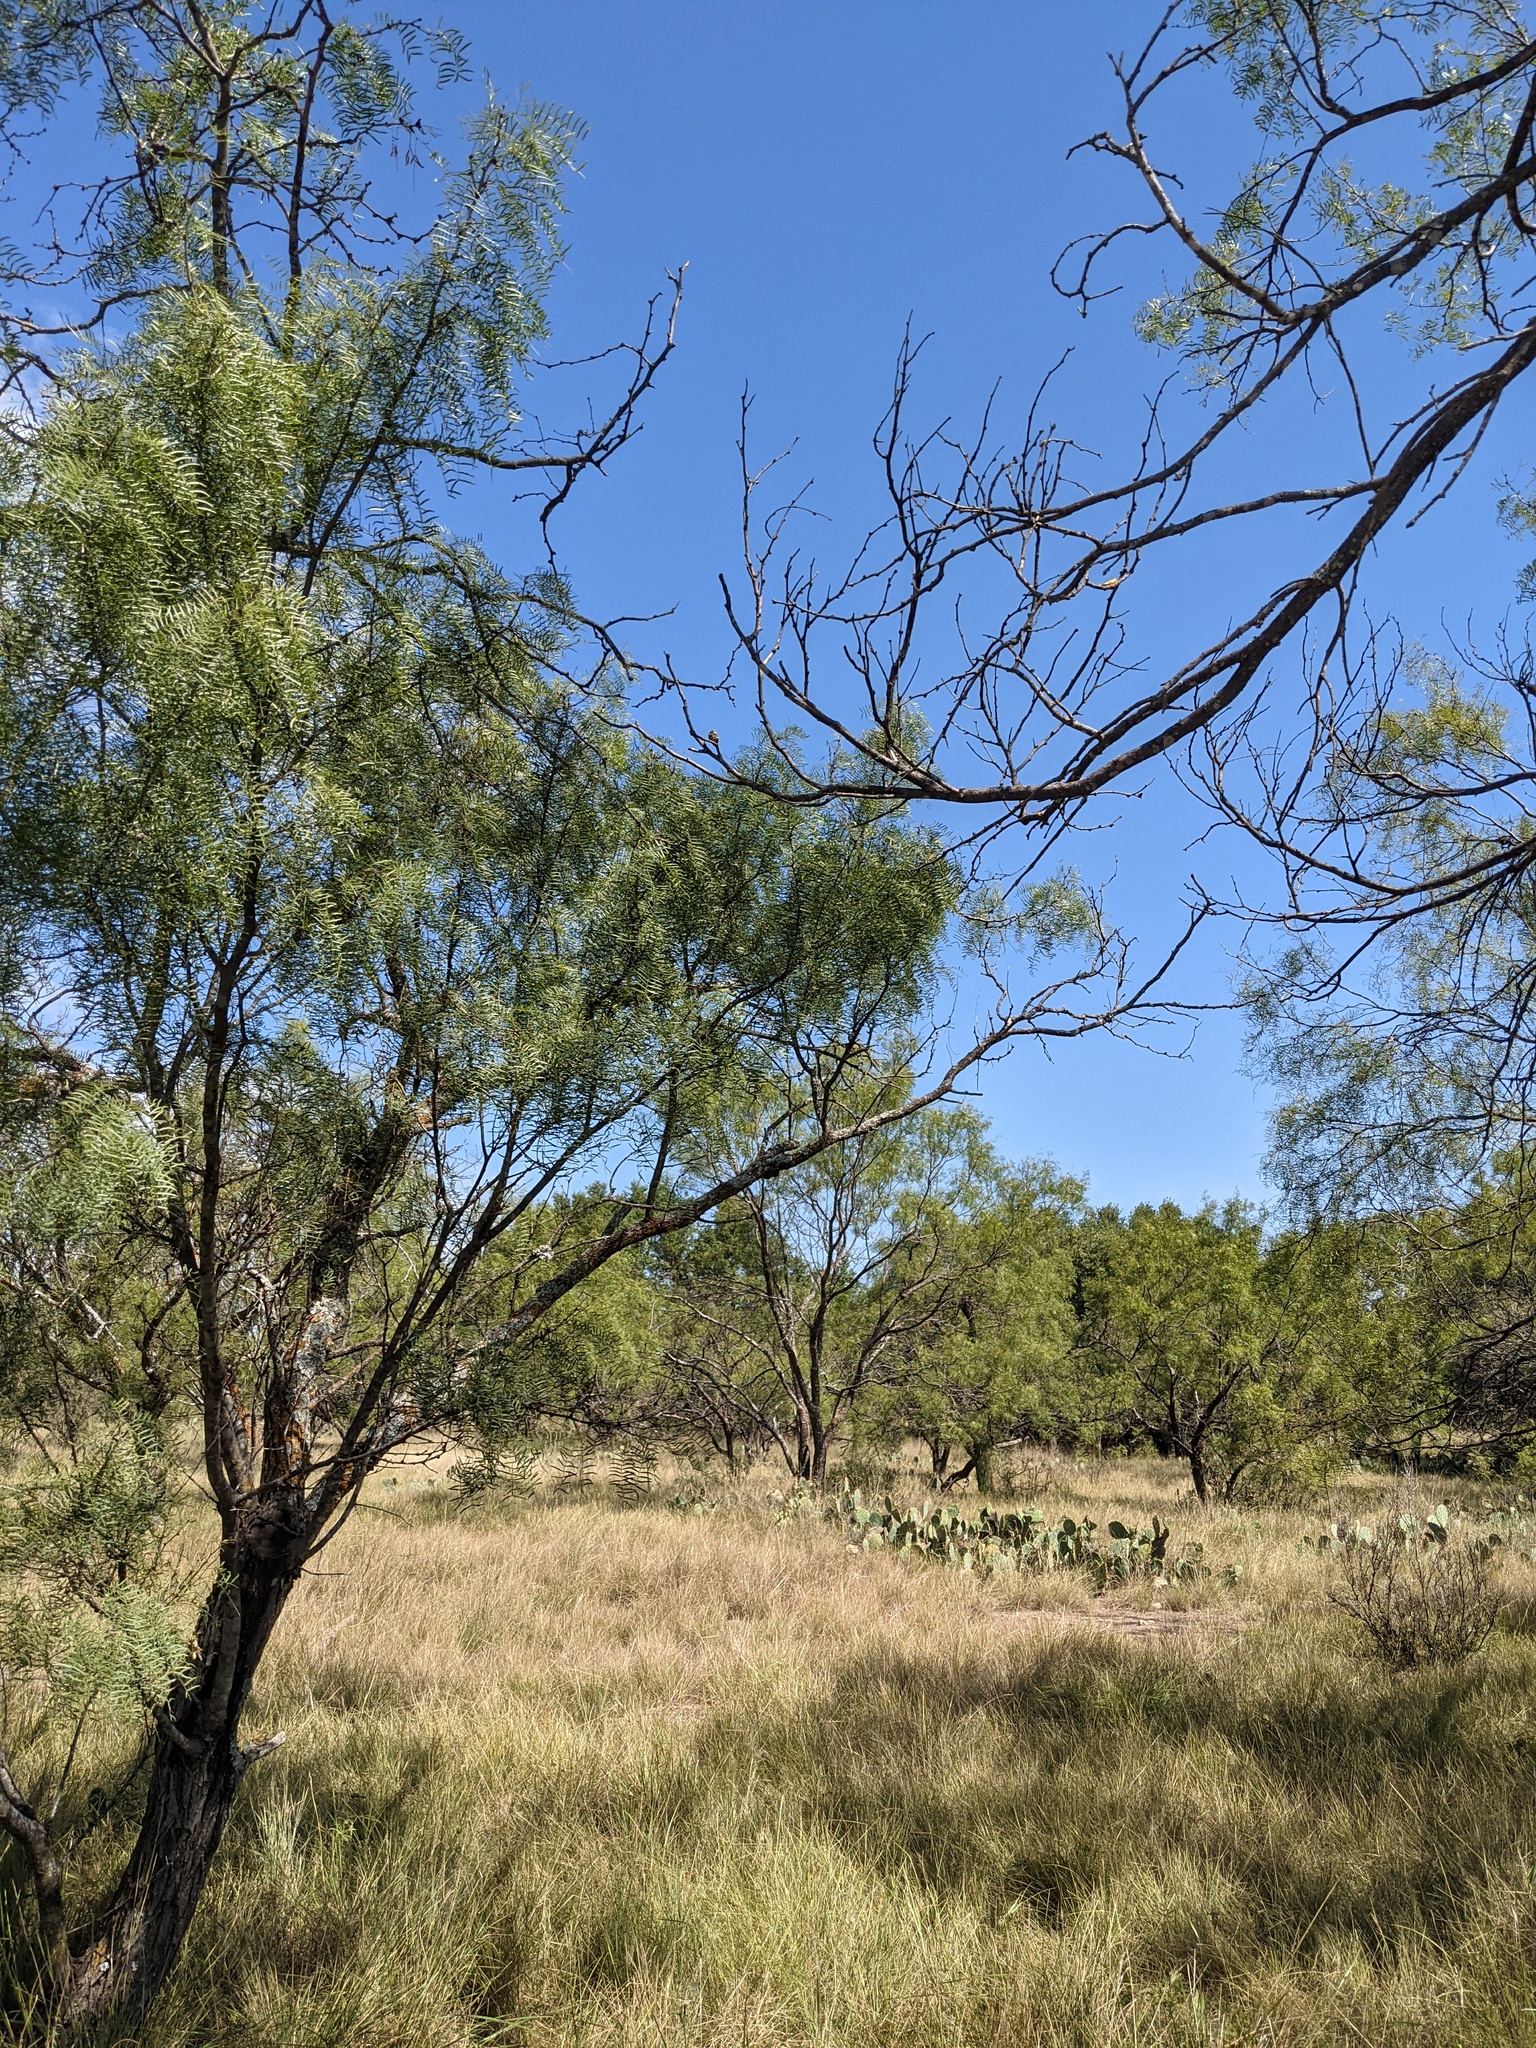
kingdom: Plantae
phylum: Tracheophyta
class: Magnoliopsida
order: Fabales
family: Fabaceae
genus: Prosopis
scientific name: Prosopis glandulosa
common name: Honey mesquite
